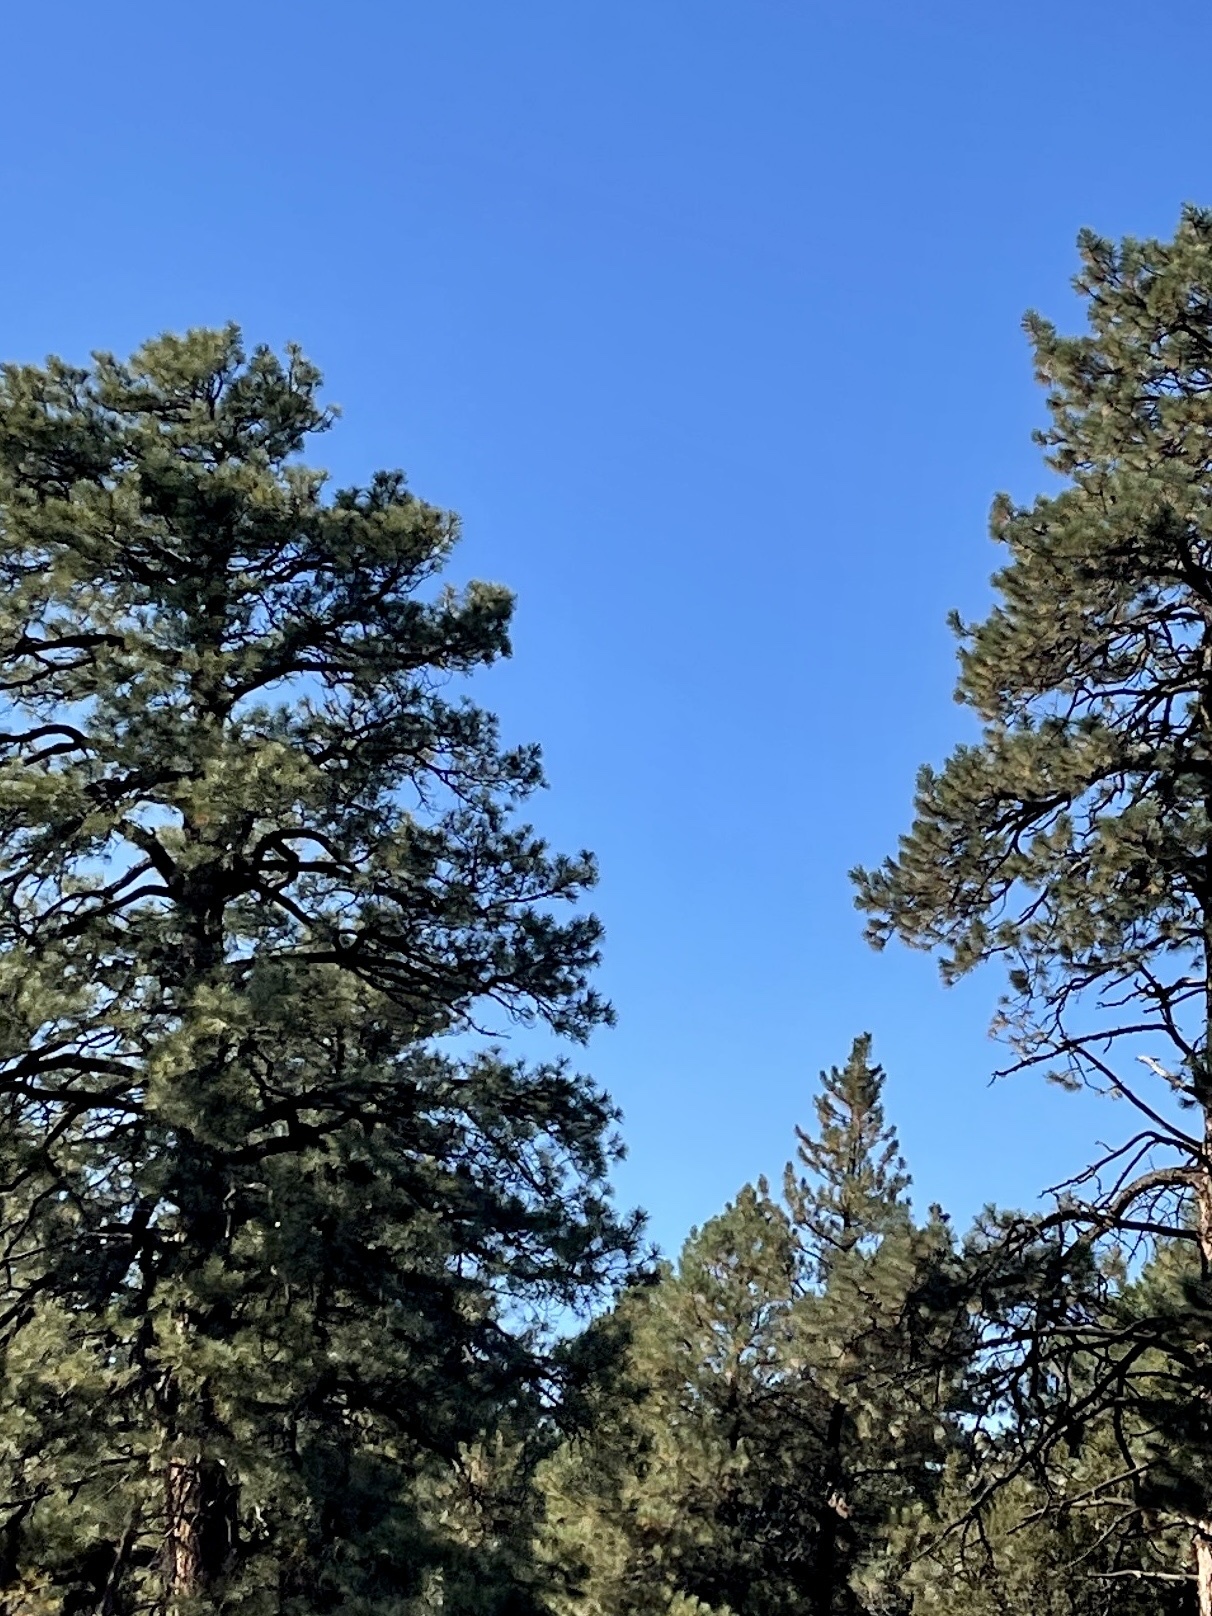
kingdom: Plantae
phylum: Tracheophyta
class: Pinopsida
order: Pinales
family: Pinaceae
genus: Pinus
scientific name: Pinus ponderosa
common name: Western yellow-pine
